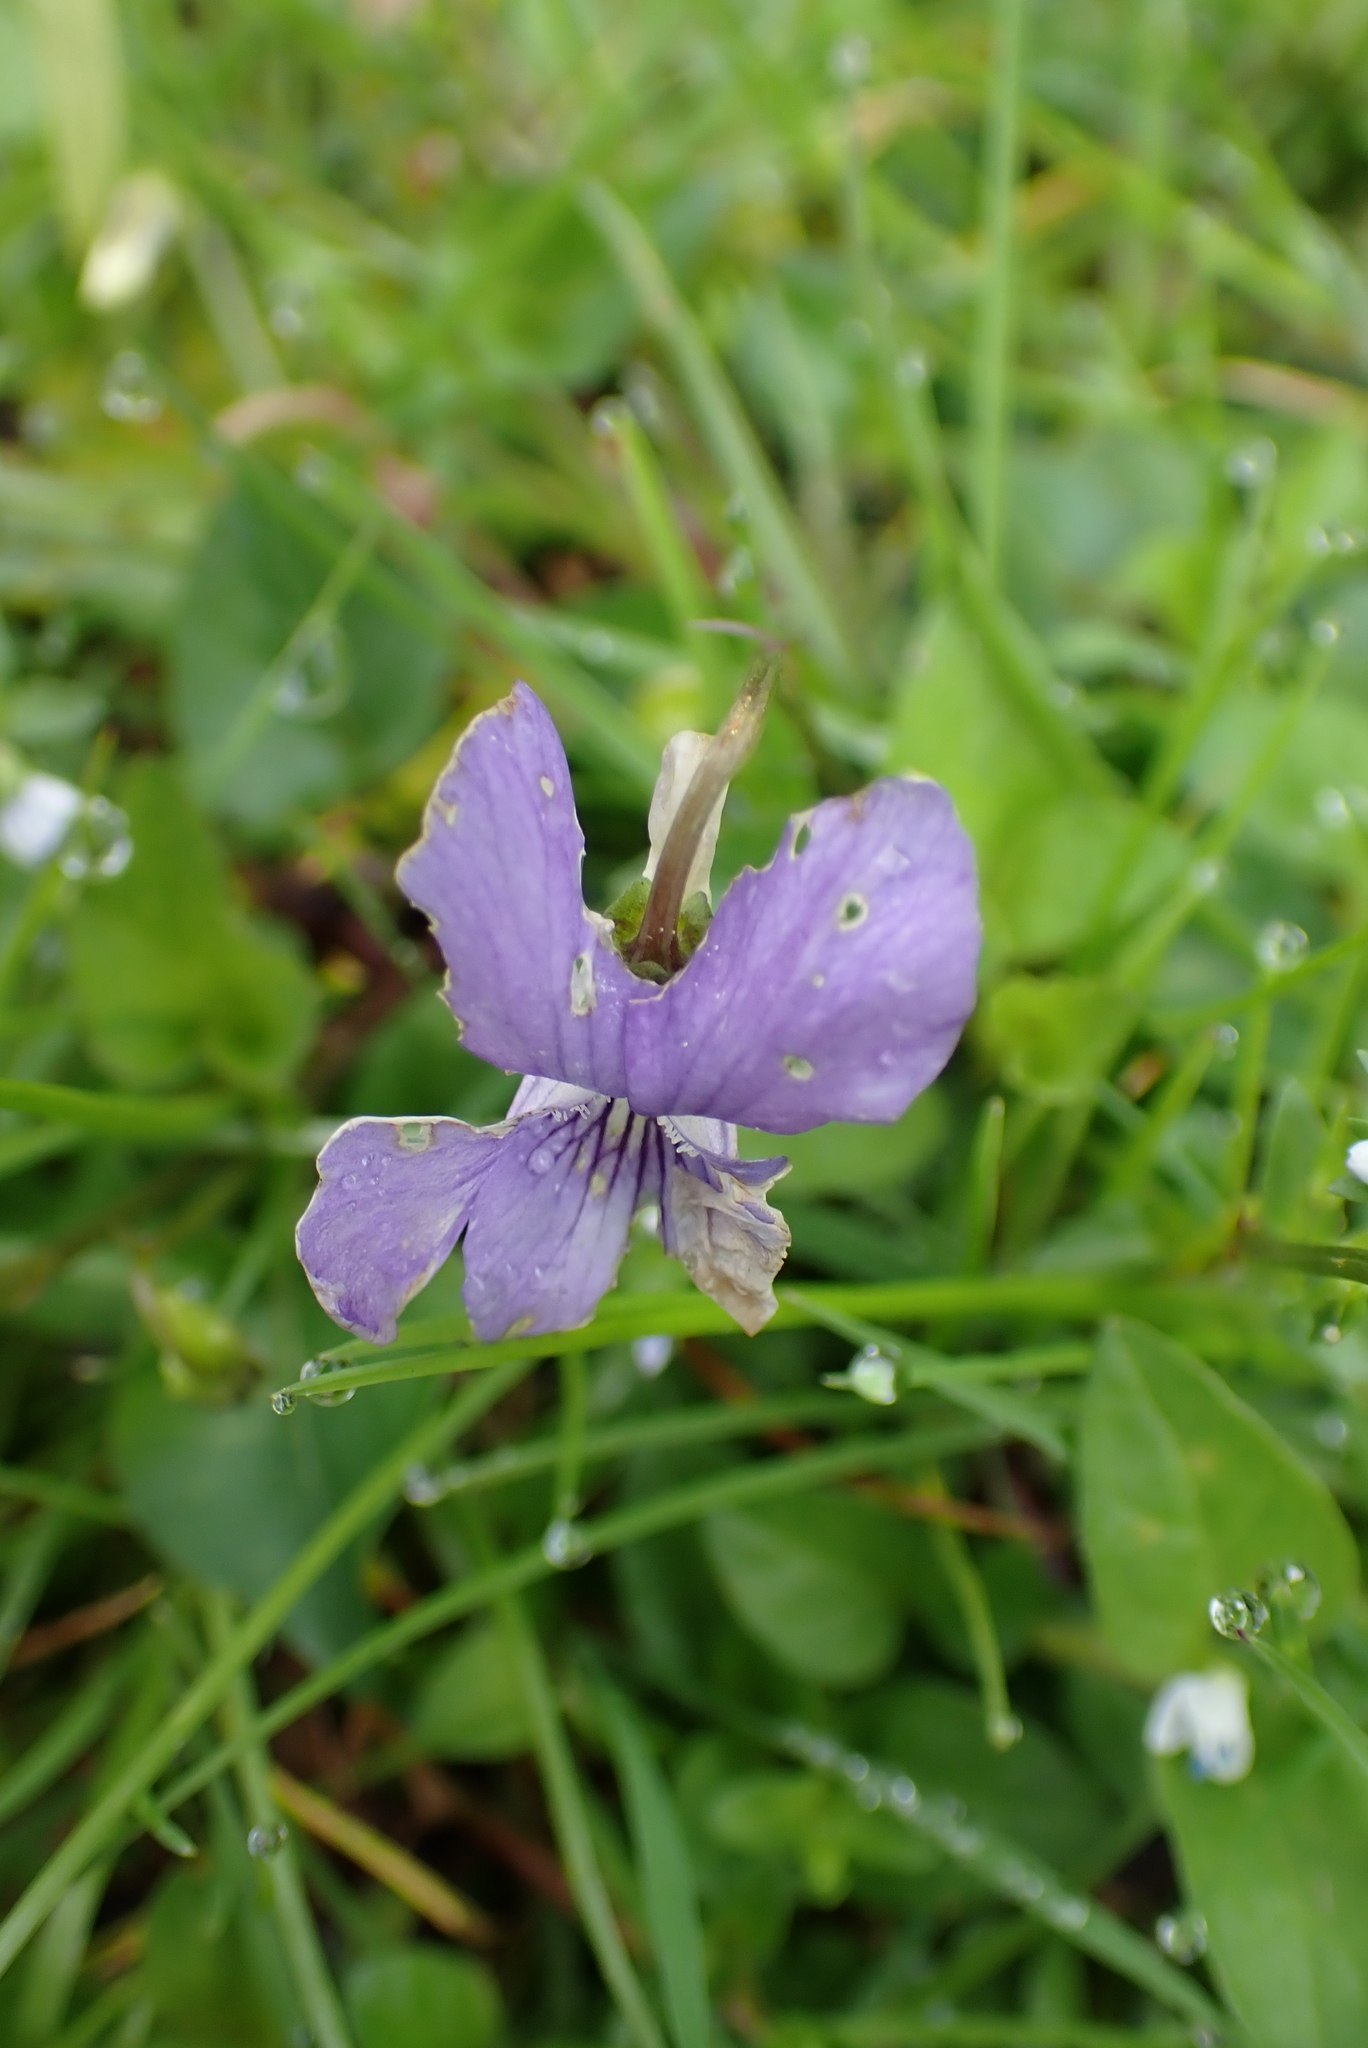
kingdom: Plantae
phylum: Tracheophyta
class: Magnoliopsida
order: Malpighiales
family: Violaceae
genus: Viola
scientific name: Viola riviniana
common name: Common dog-violet
